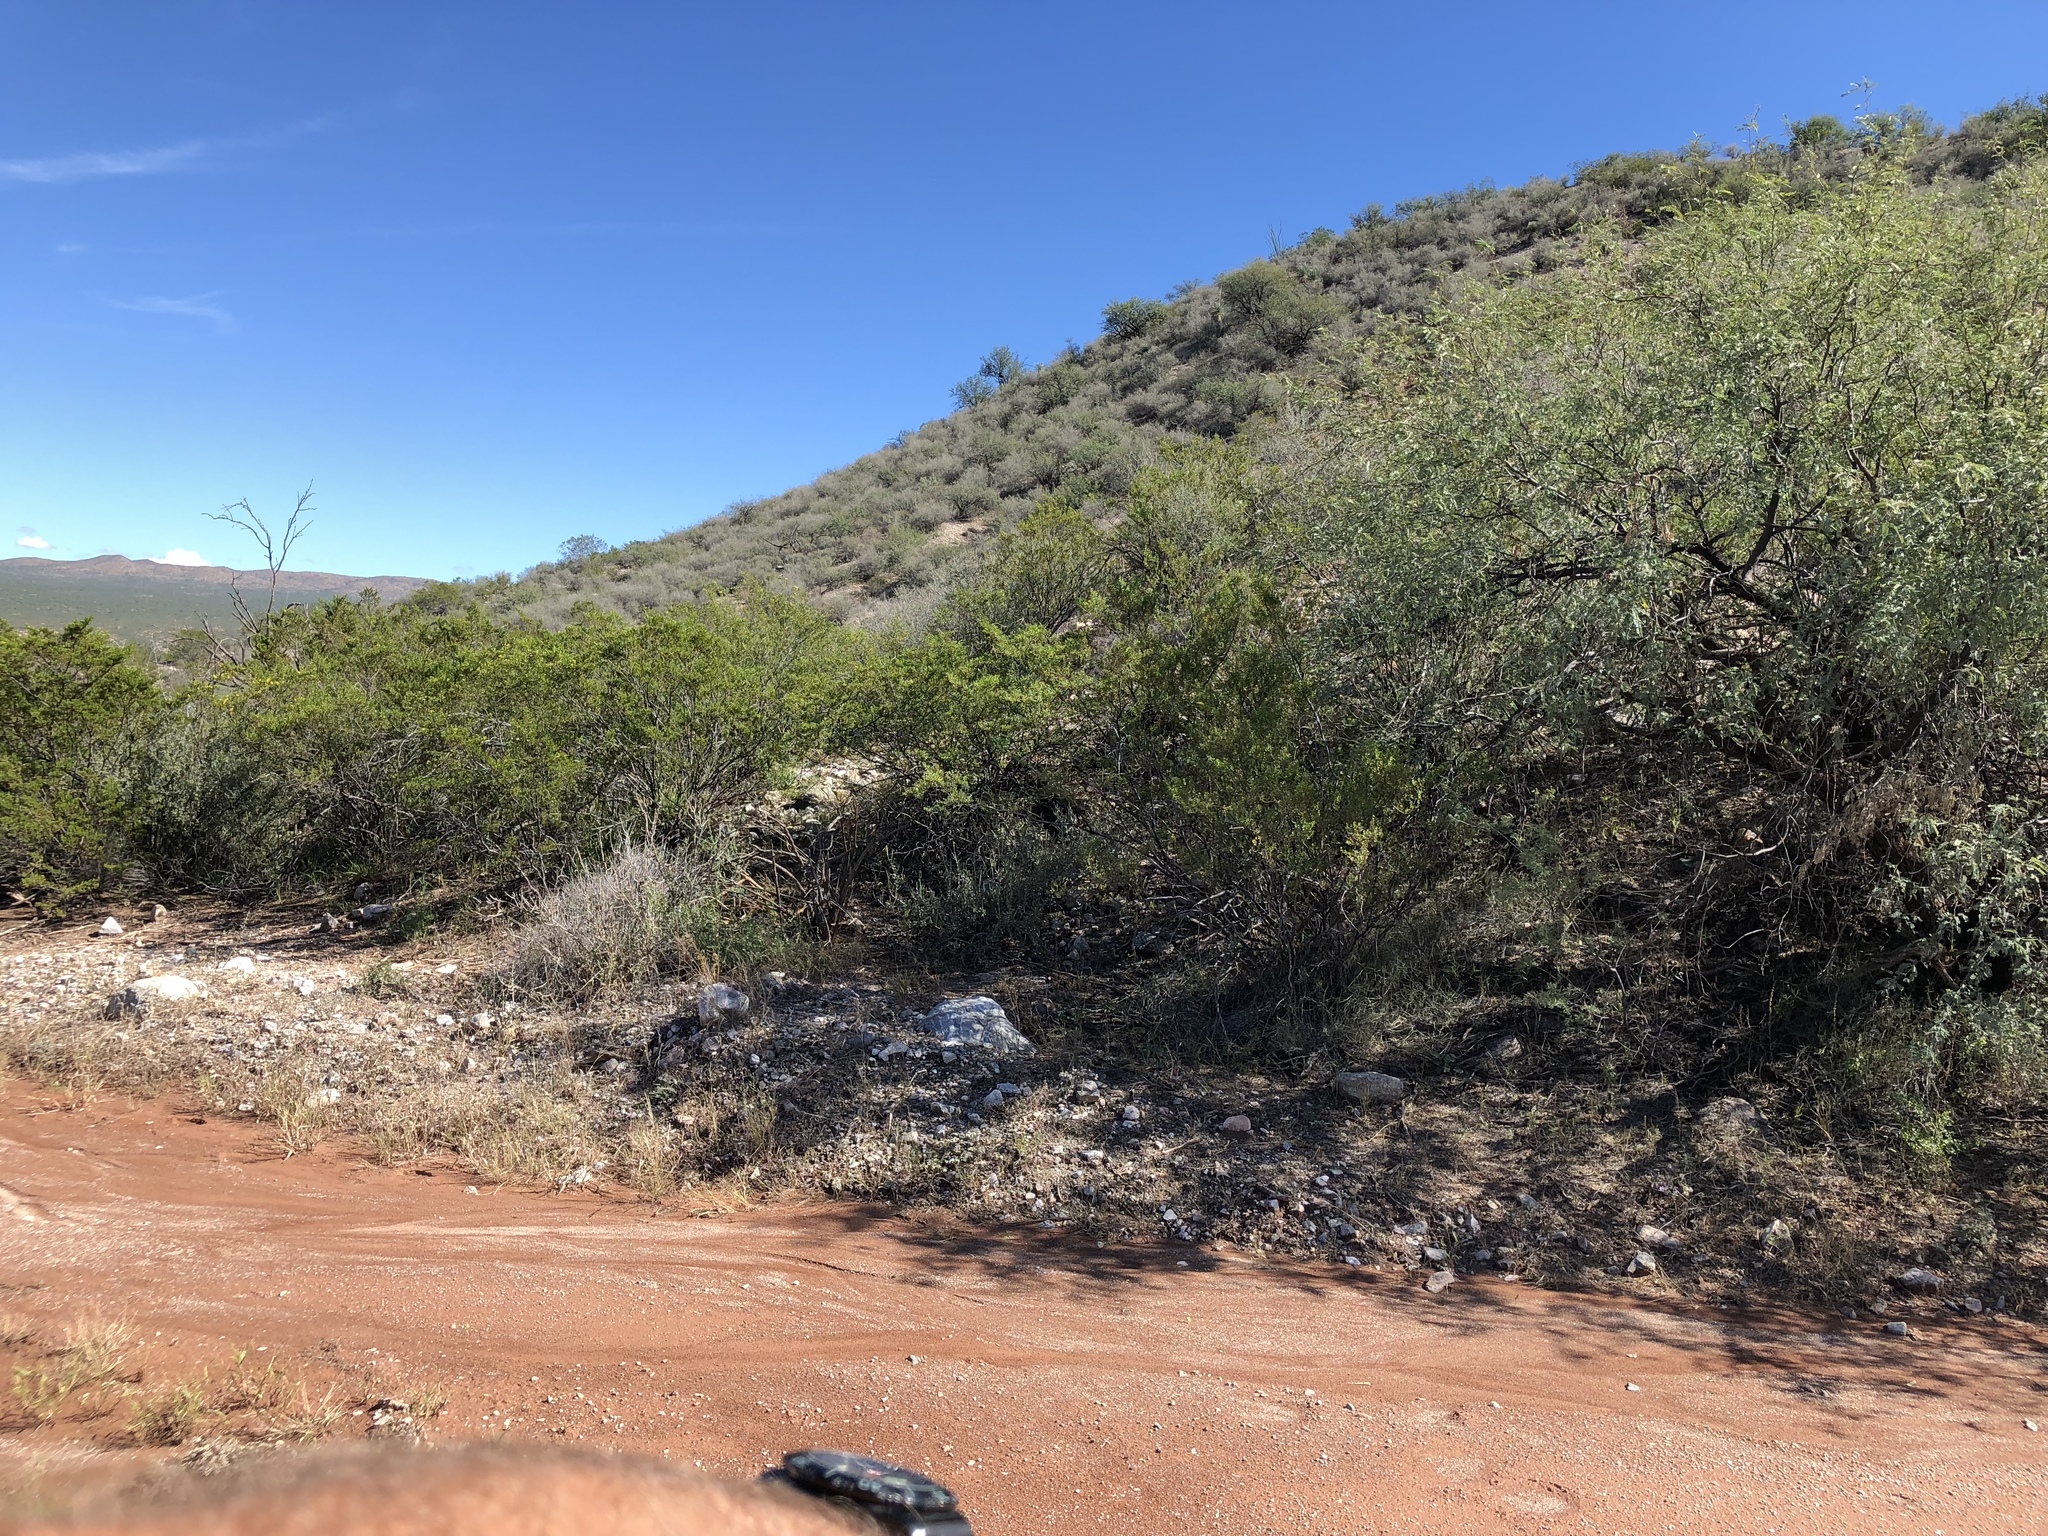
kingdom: Plantae
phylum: Tracheophyta
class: Magnoliopsida
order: Fabales
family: Fabaceae
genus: Prosopis
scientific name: Prosopis velutina
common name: Velvet mesquite
